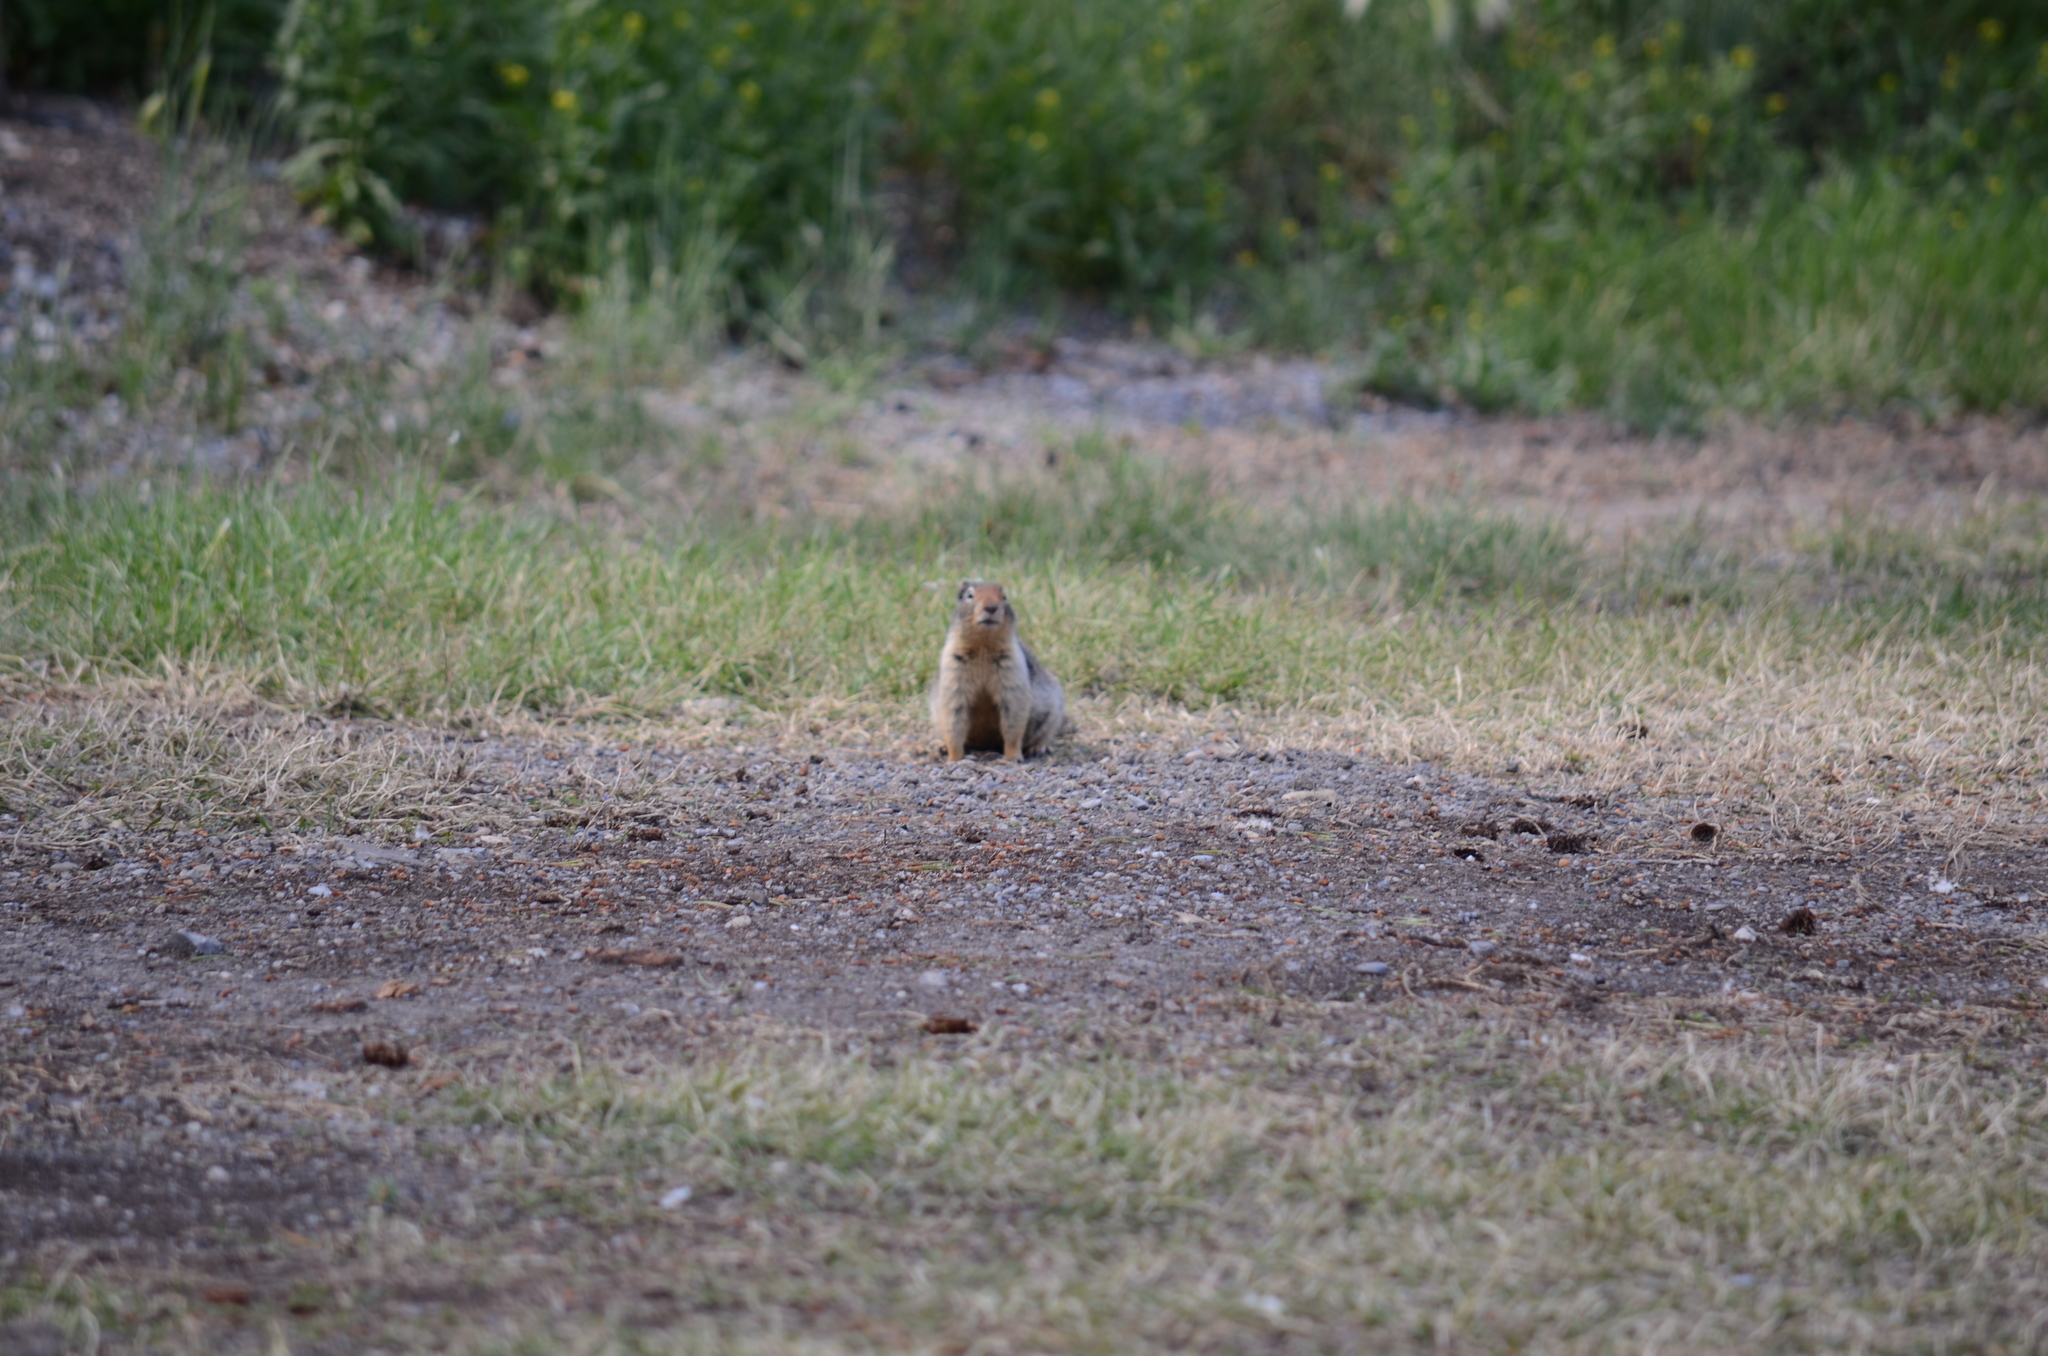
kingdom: Animalia
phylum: Chordata
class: Mammalia
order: Rodentia
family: Sciuridae
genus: Urocitellus
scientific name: Urocitellus columbianus
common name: Columbian ground squirrel
